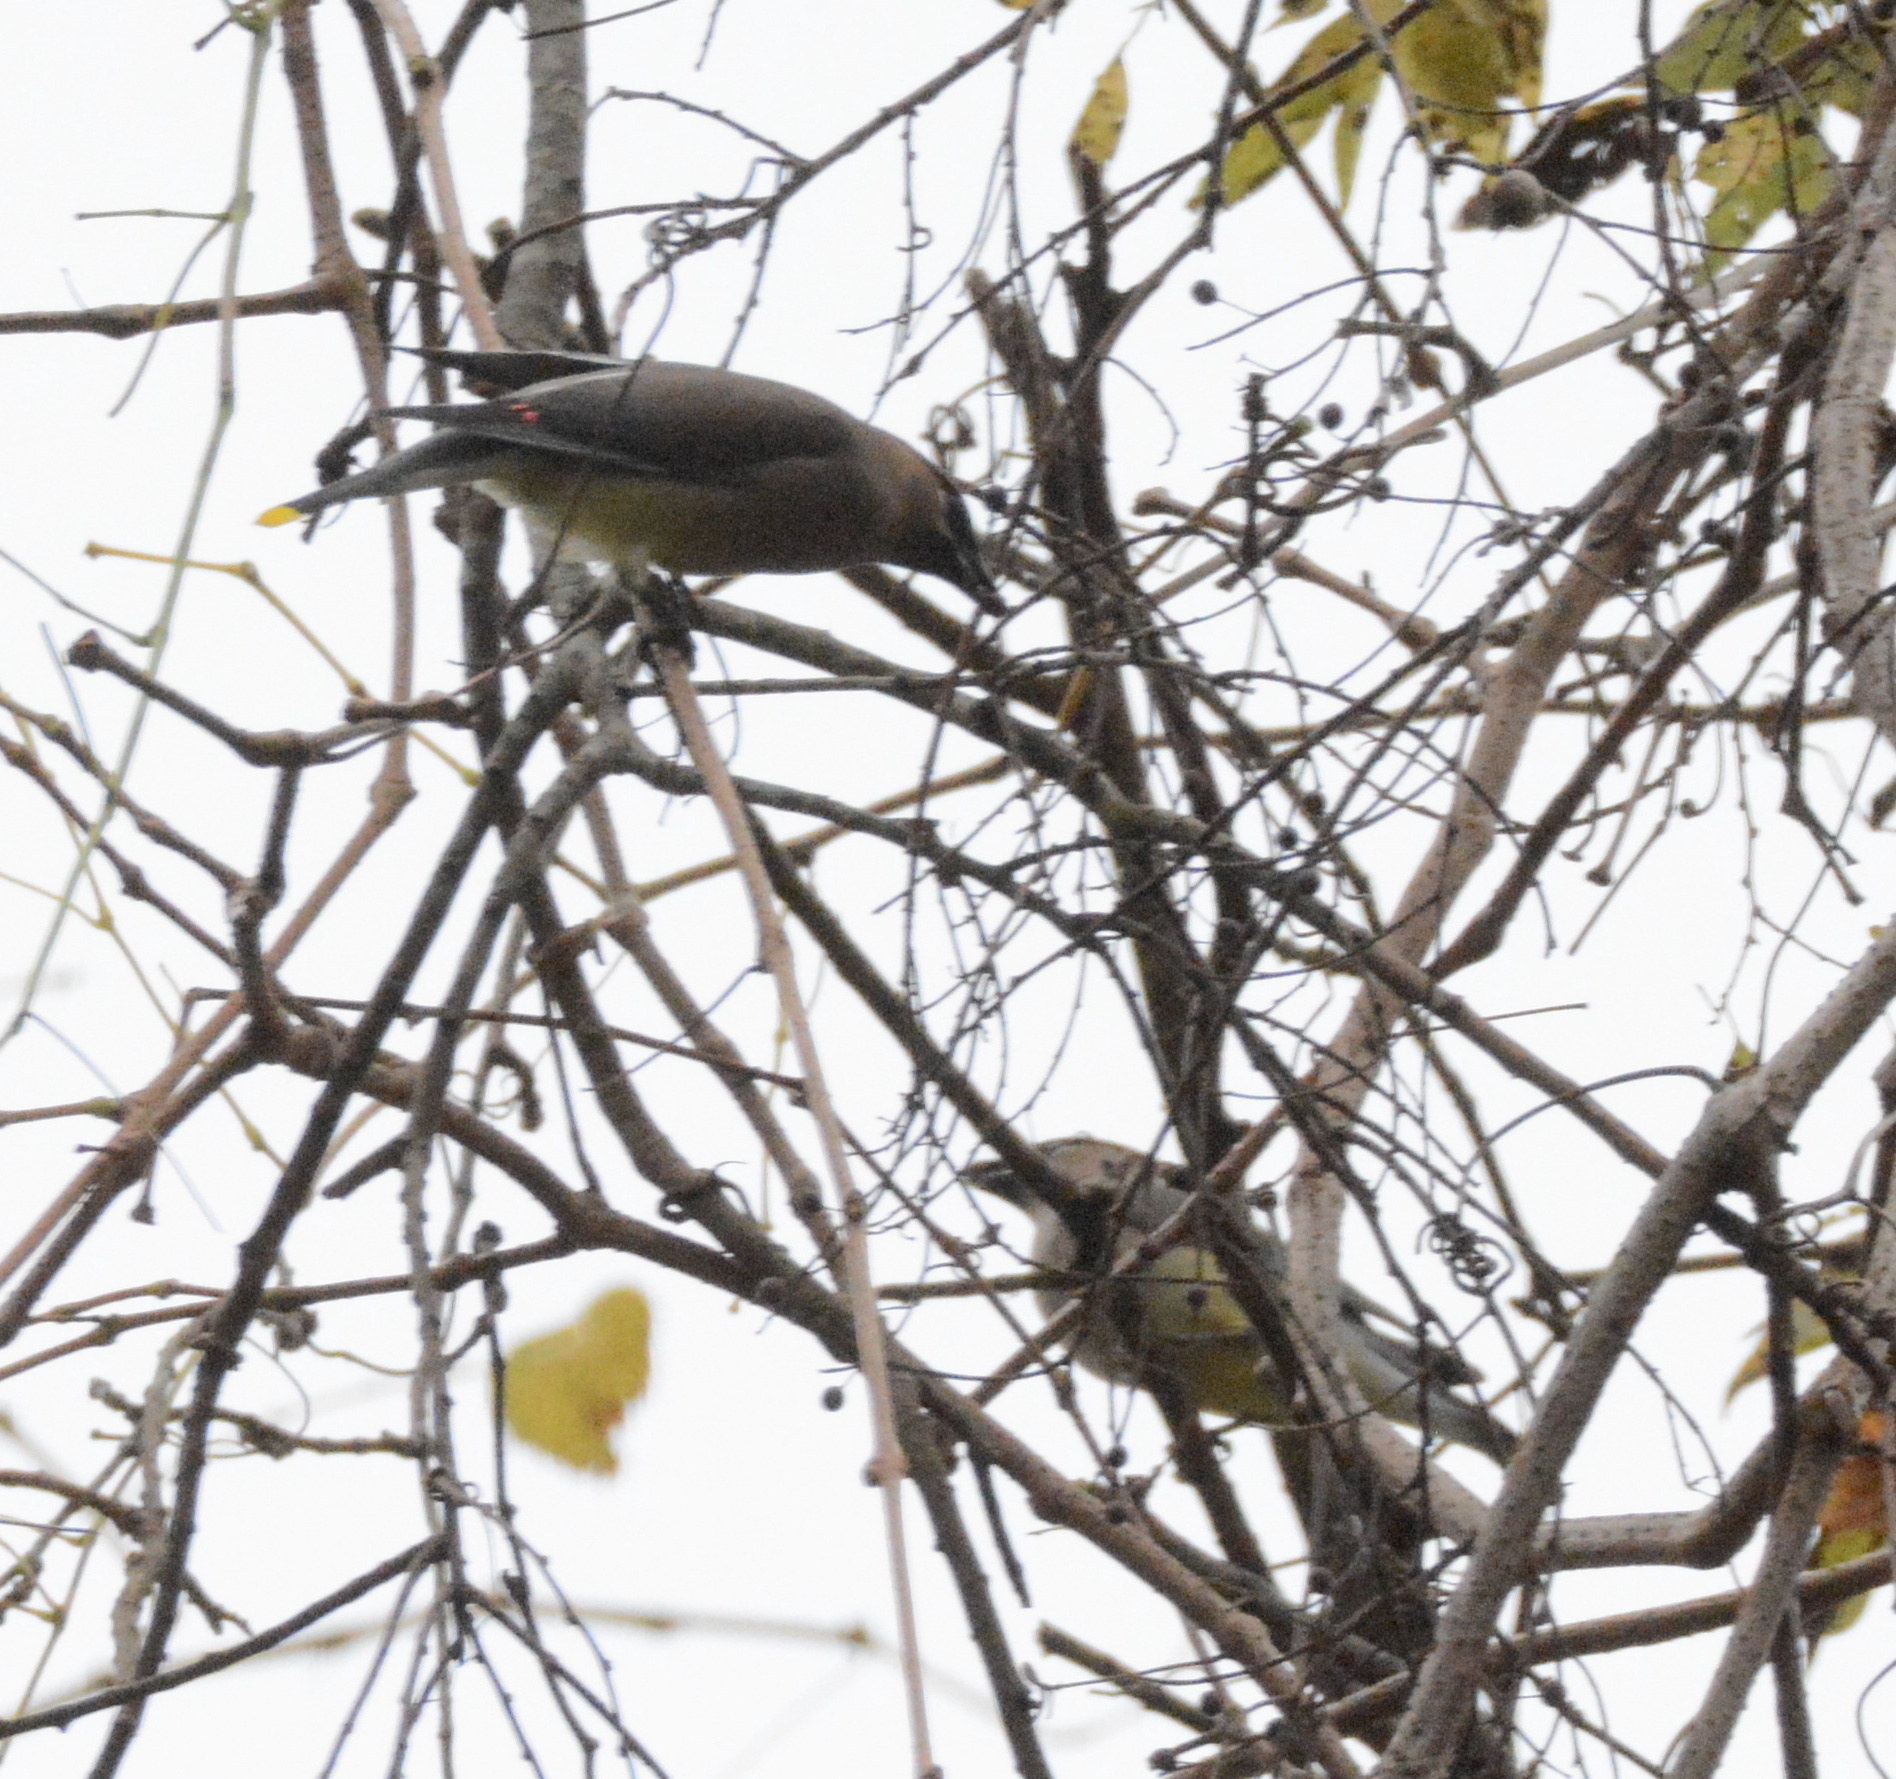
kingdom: Animalia
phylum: Chordata
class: Aves
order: Passeriformes
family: Bombycillidae
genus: Bombycilla
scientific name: Bombycilla cedrorum
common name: Cedar waxwing
